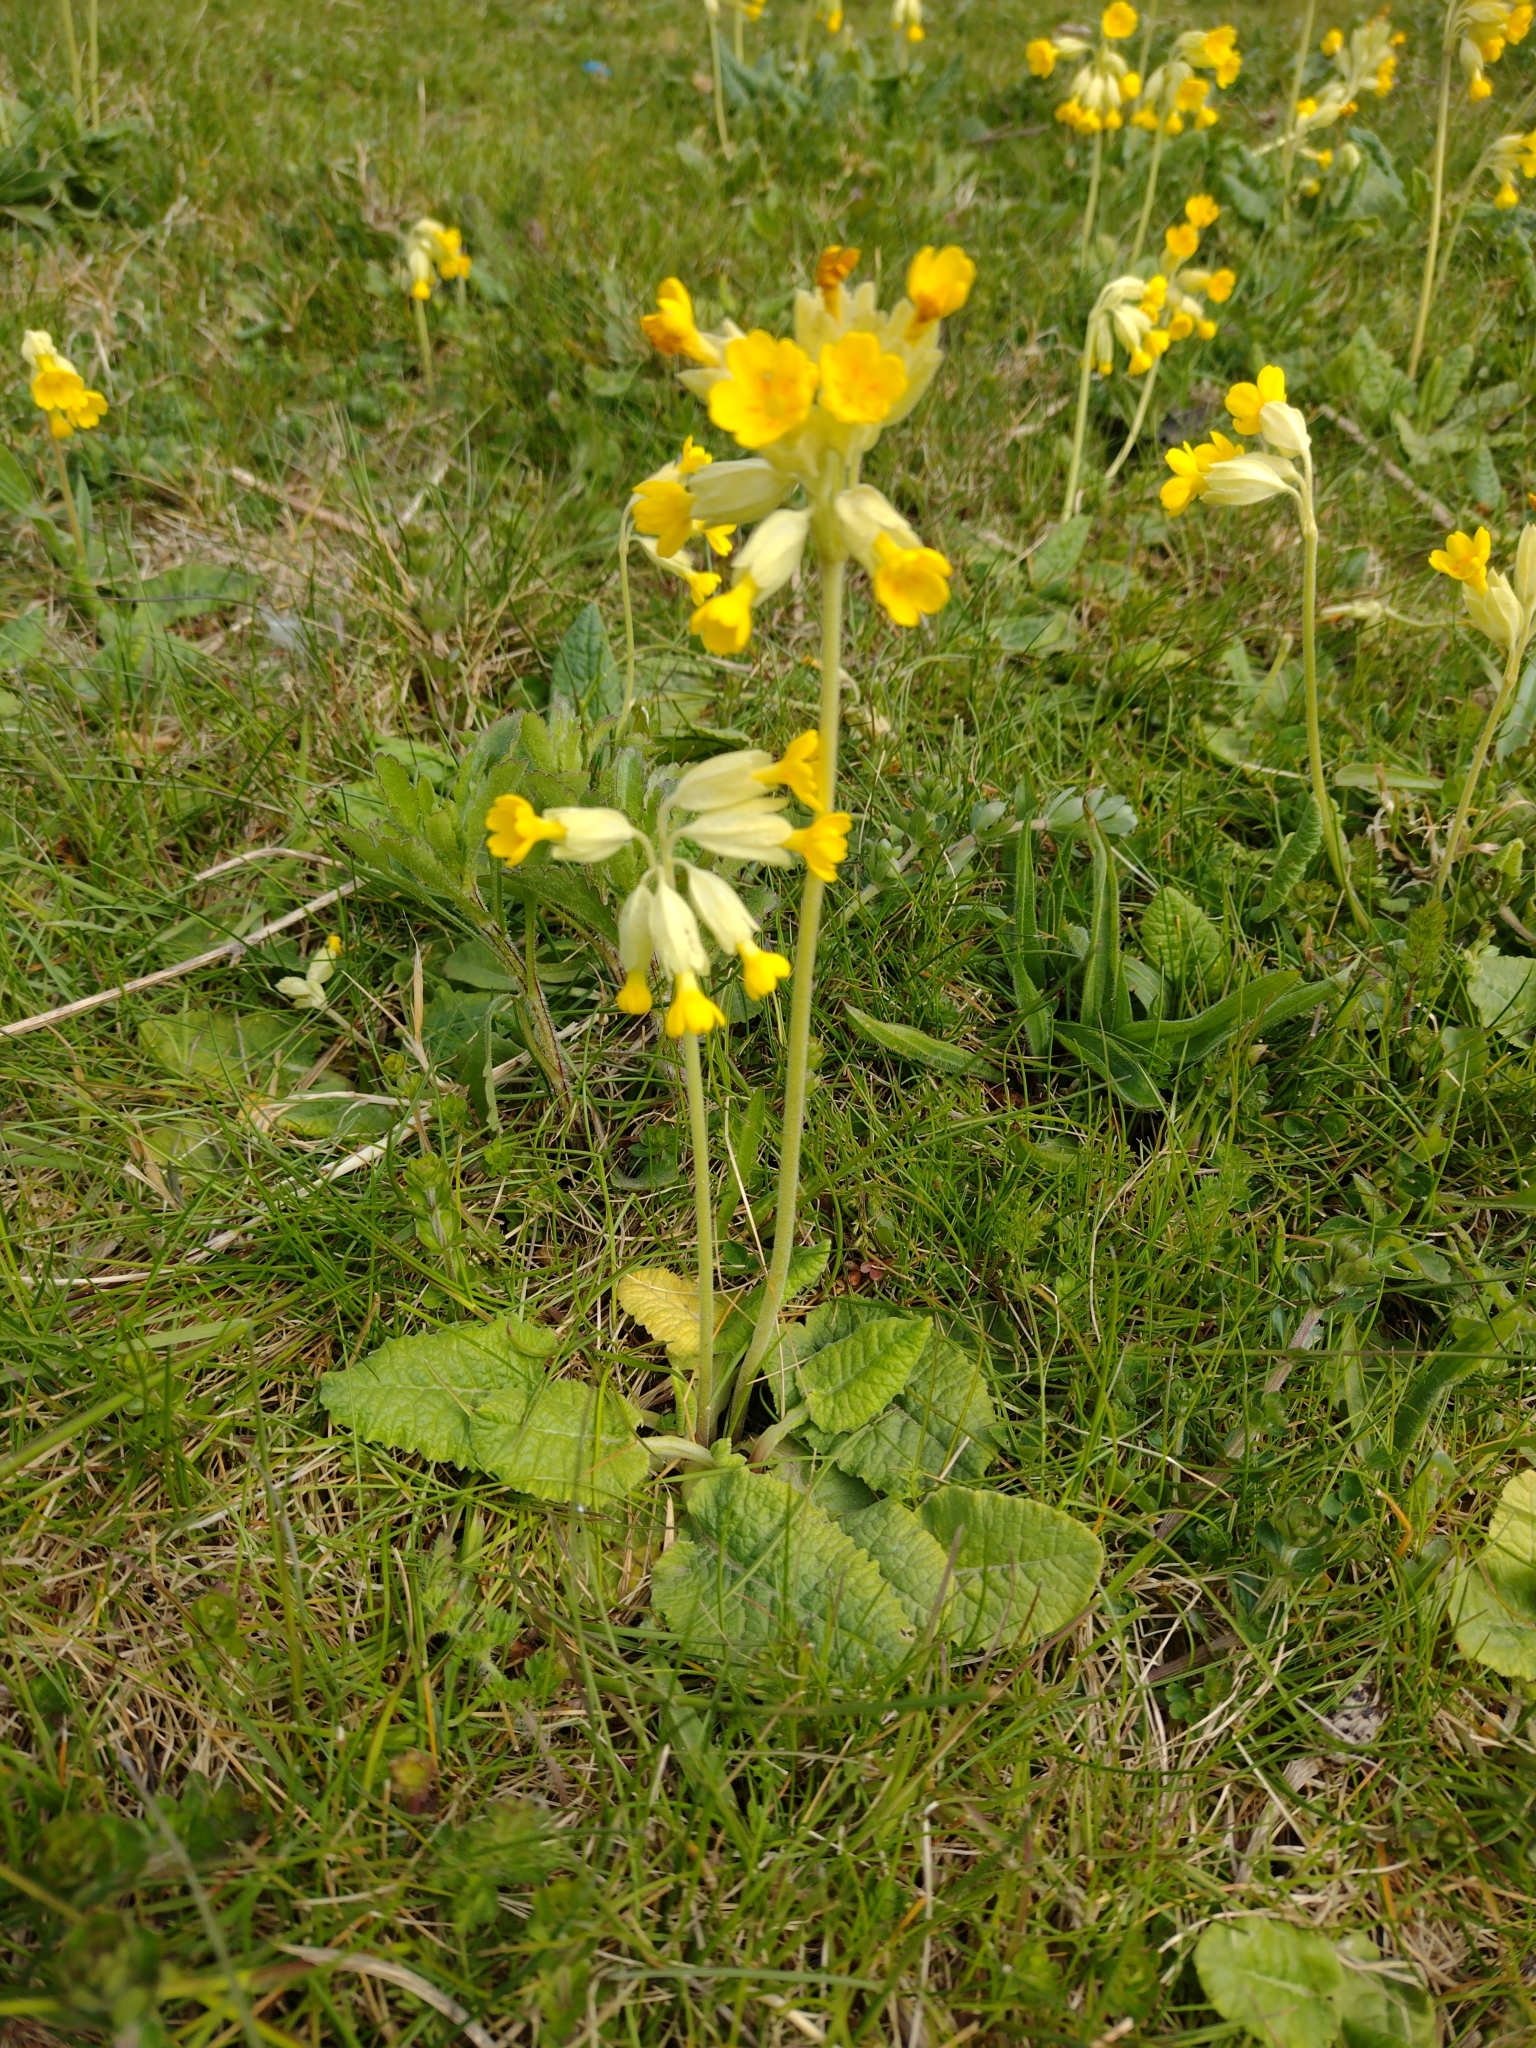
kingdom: Plantae
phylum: Tracheophyta
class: Magnoliopsida
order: Ericales
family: Primulaceae
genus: Primula
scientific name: Primula veris
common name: Cowslip
